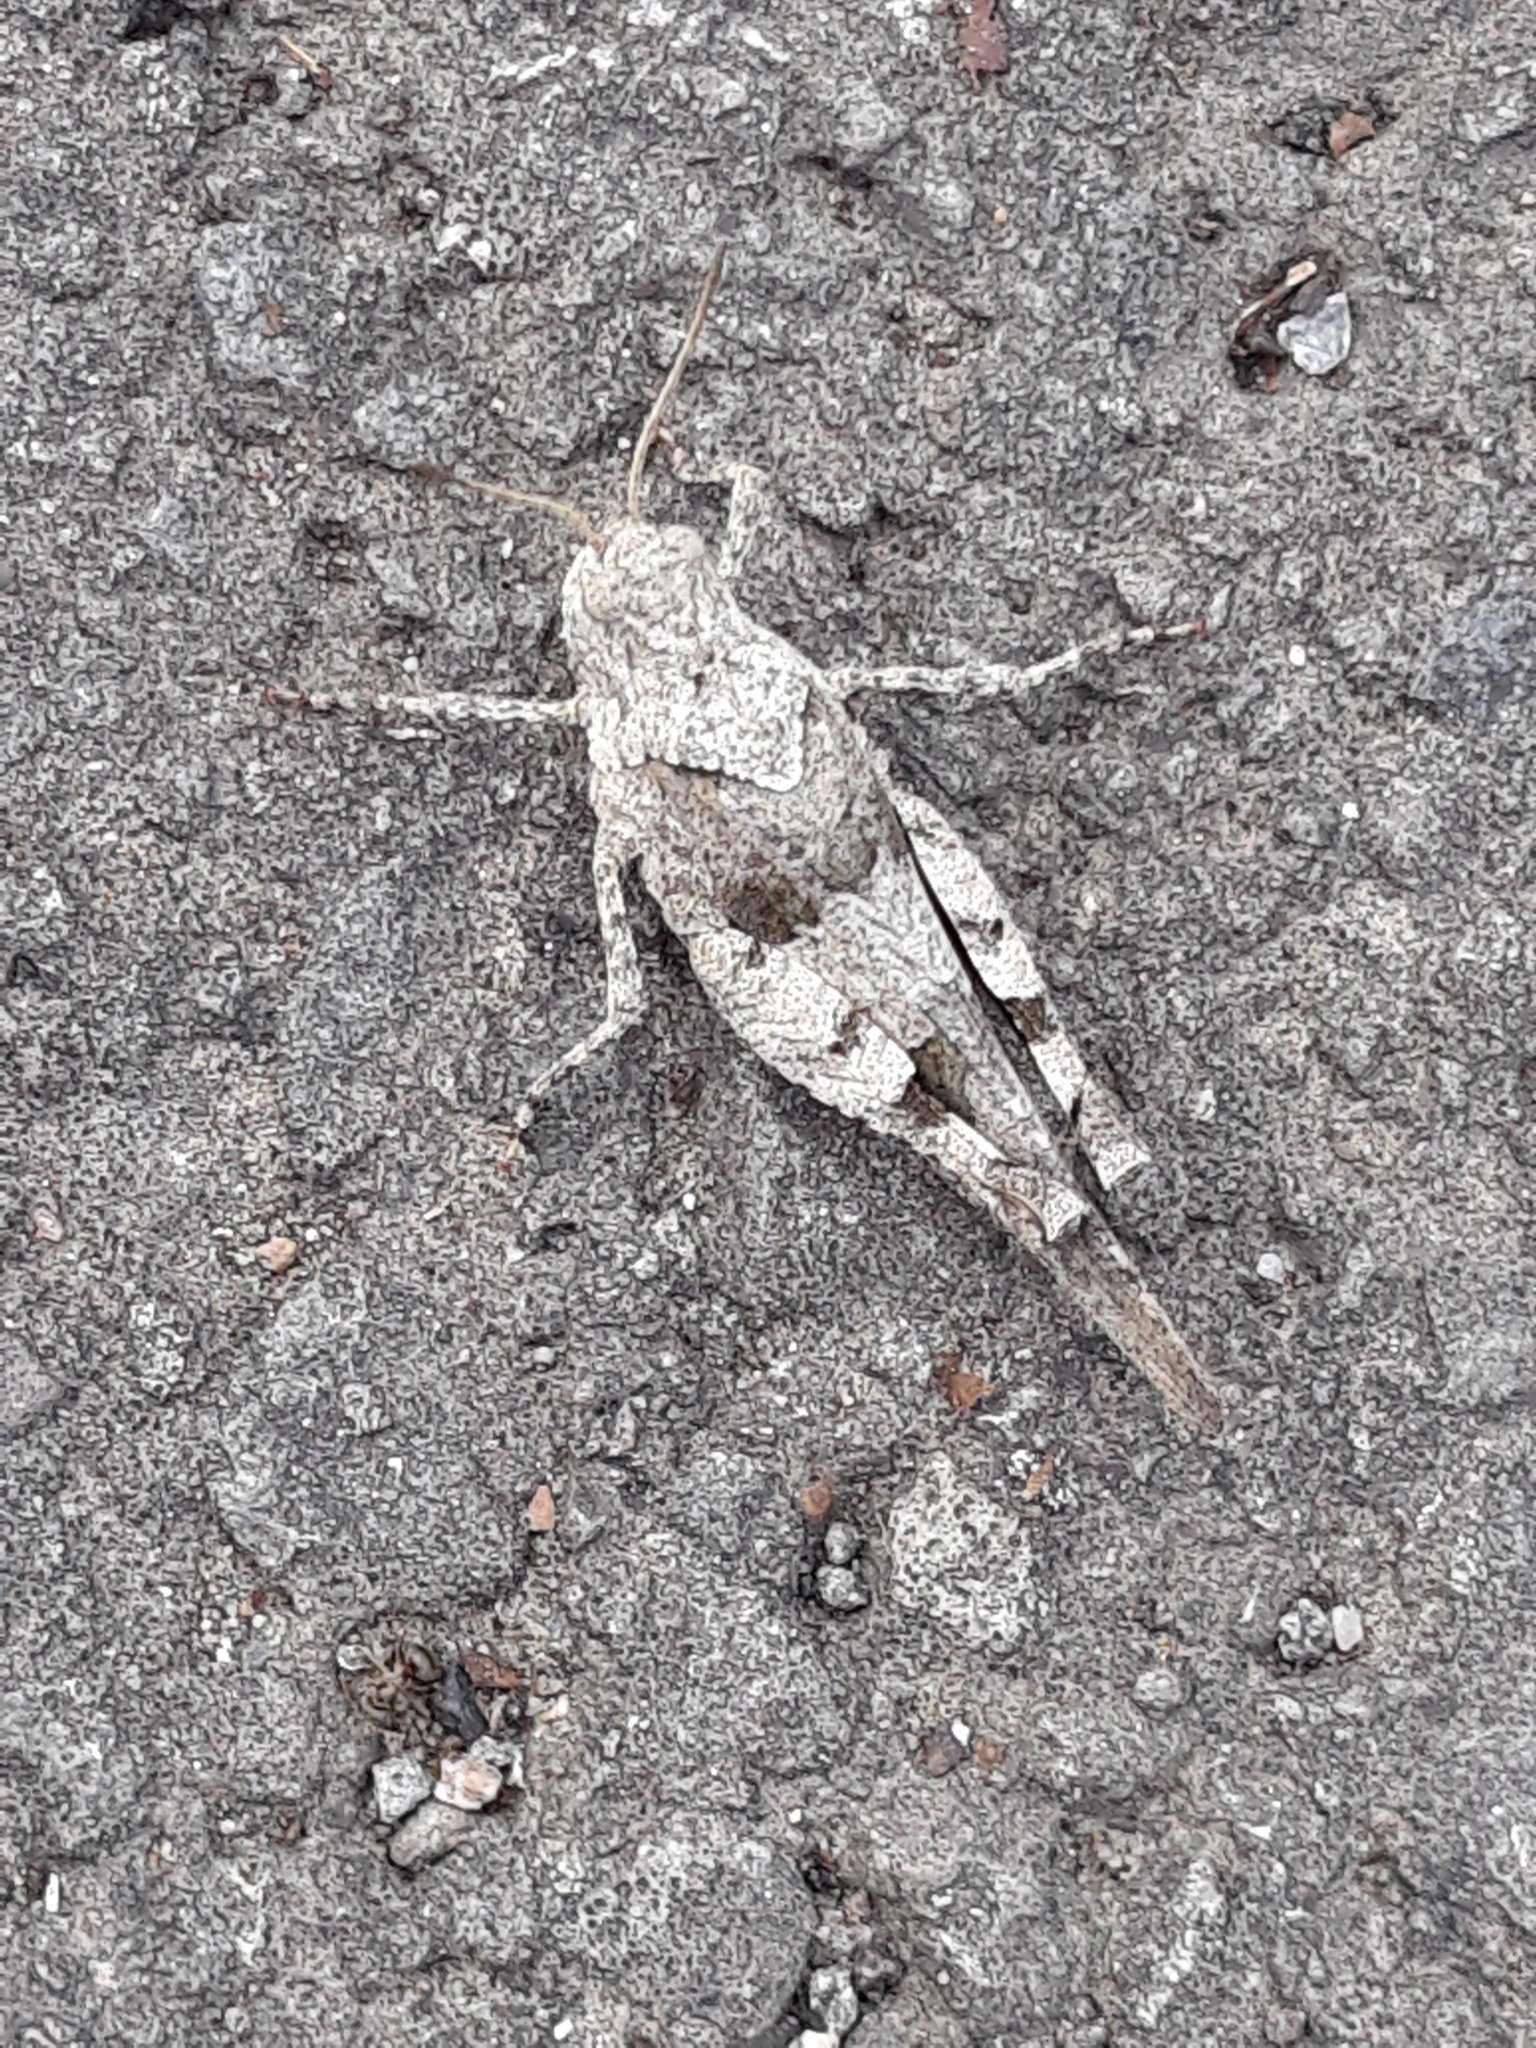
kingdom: Animalia
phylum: Arthropoda
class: Insecta
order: Orthoptera
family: Acrididae
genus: Oedipoda
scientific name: Oedipoda caerulescens
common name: Blue-winged grasshopper
